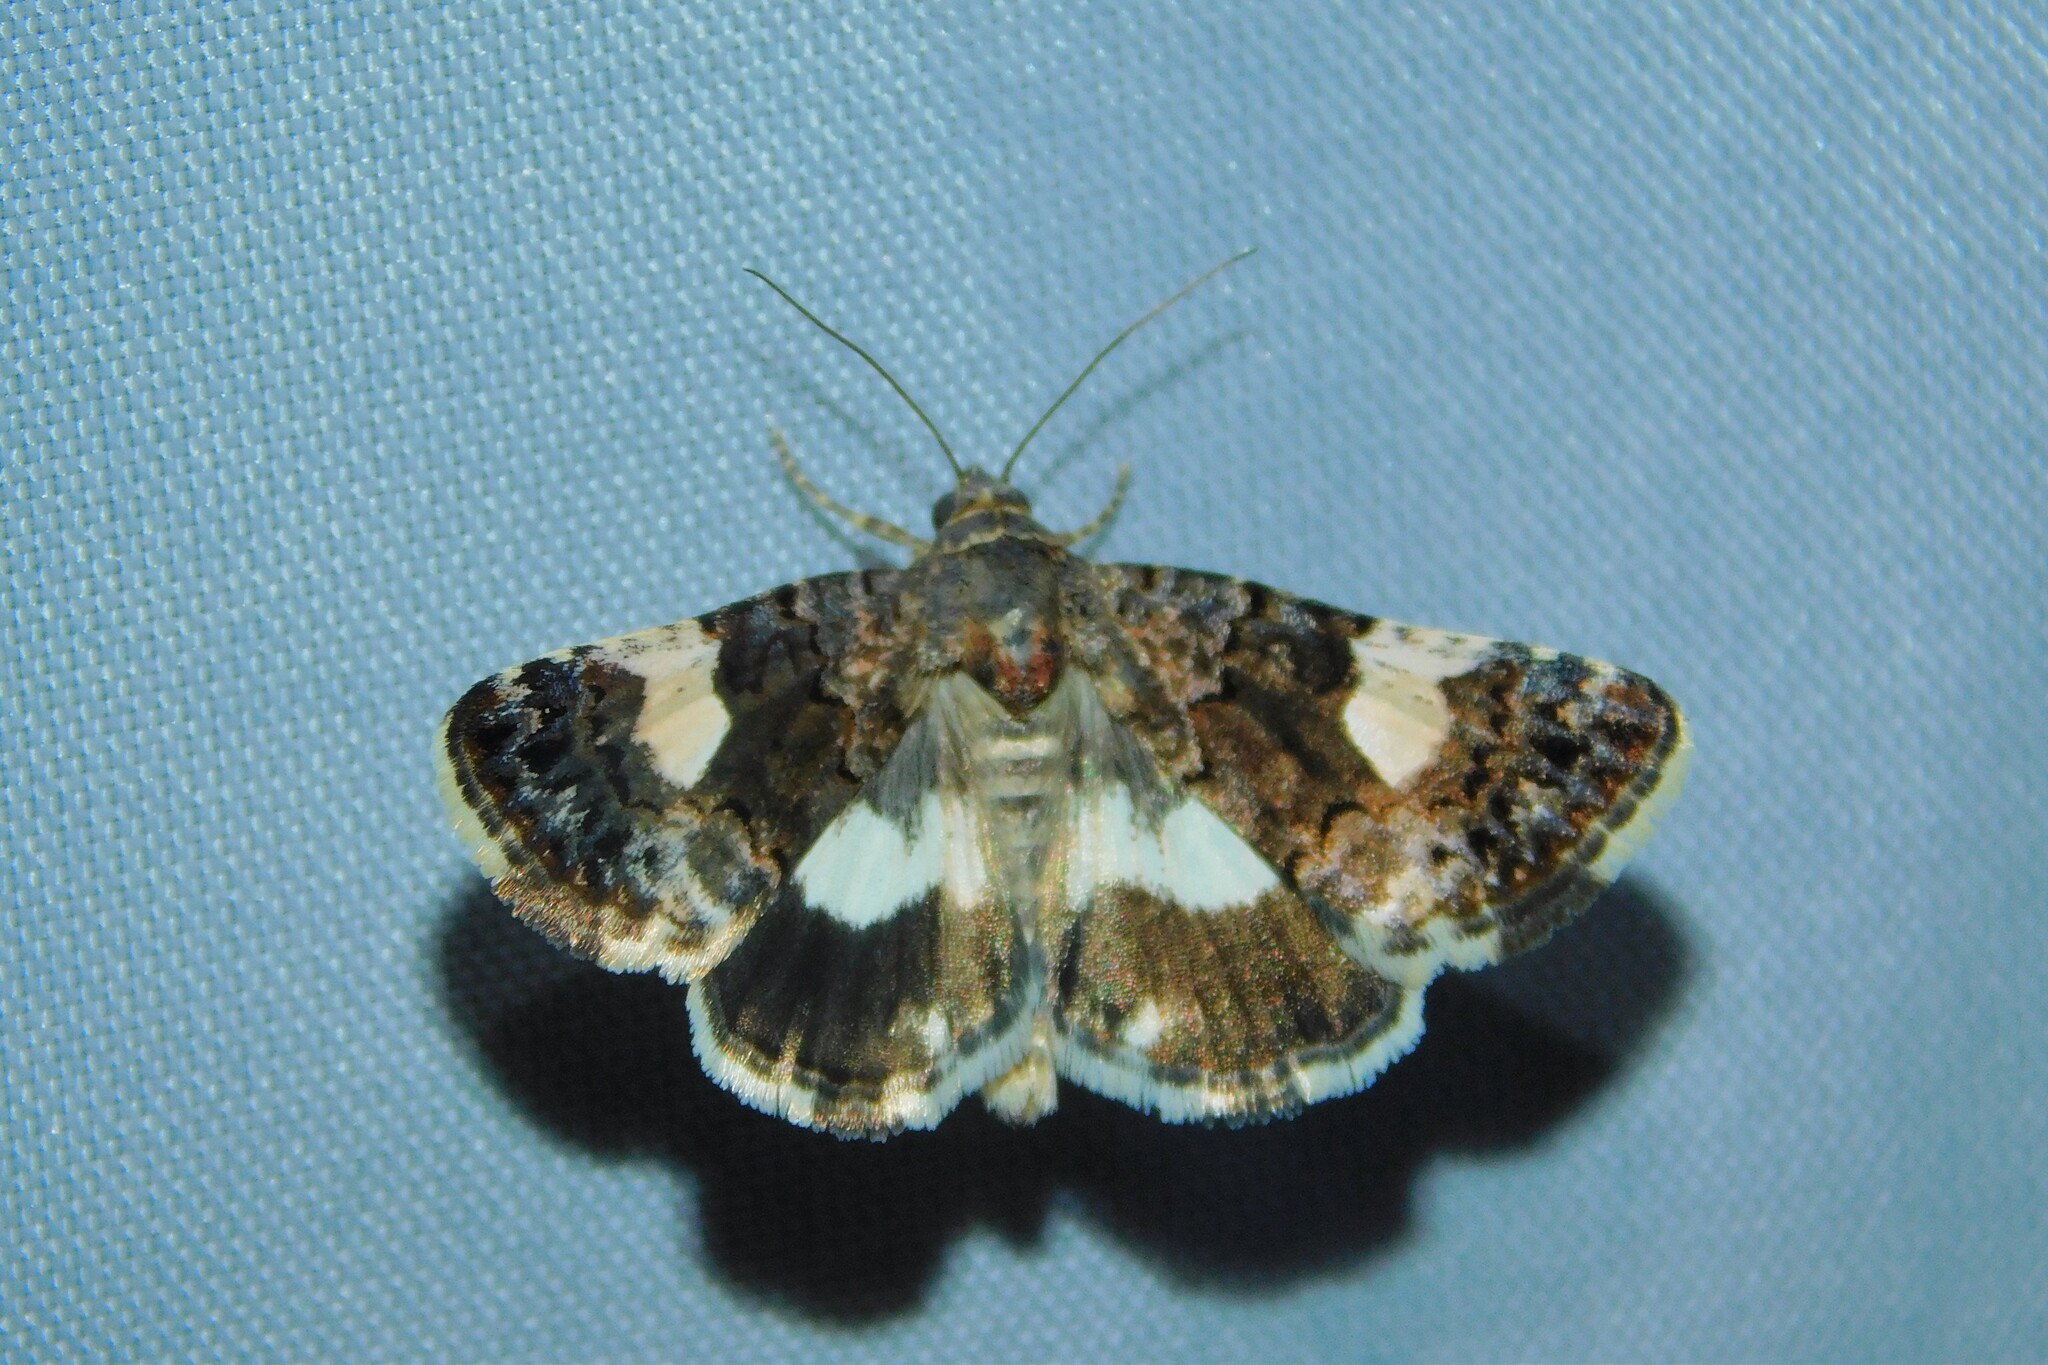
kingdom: Animalia
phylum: Arthropoda
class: Insecta
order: Lepidoptera
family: Erebidae
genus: Tyta
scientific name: Tyta luctuosa
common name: Four-spotted
